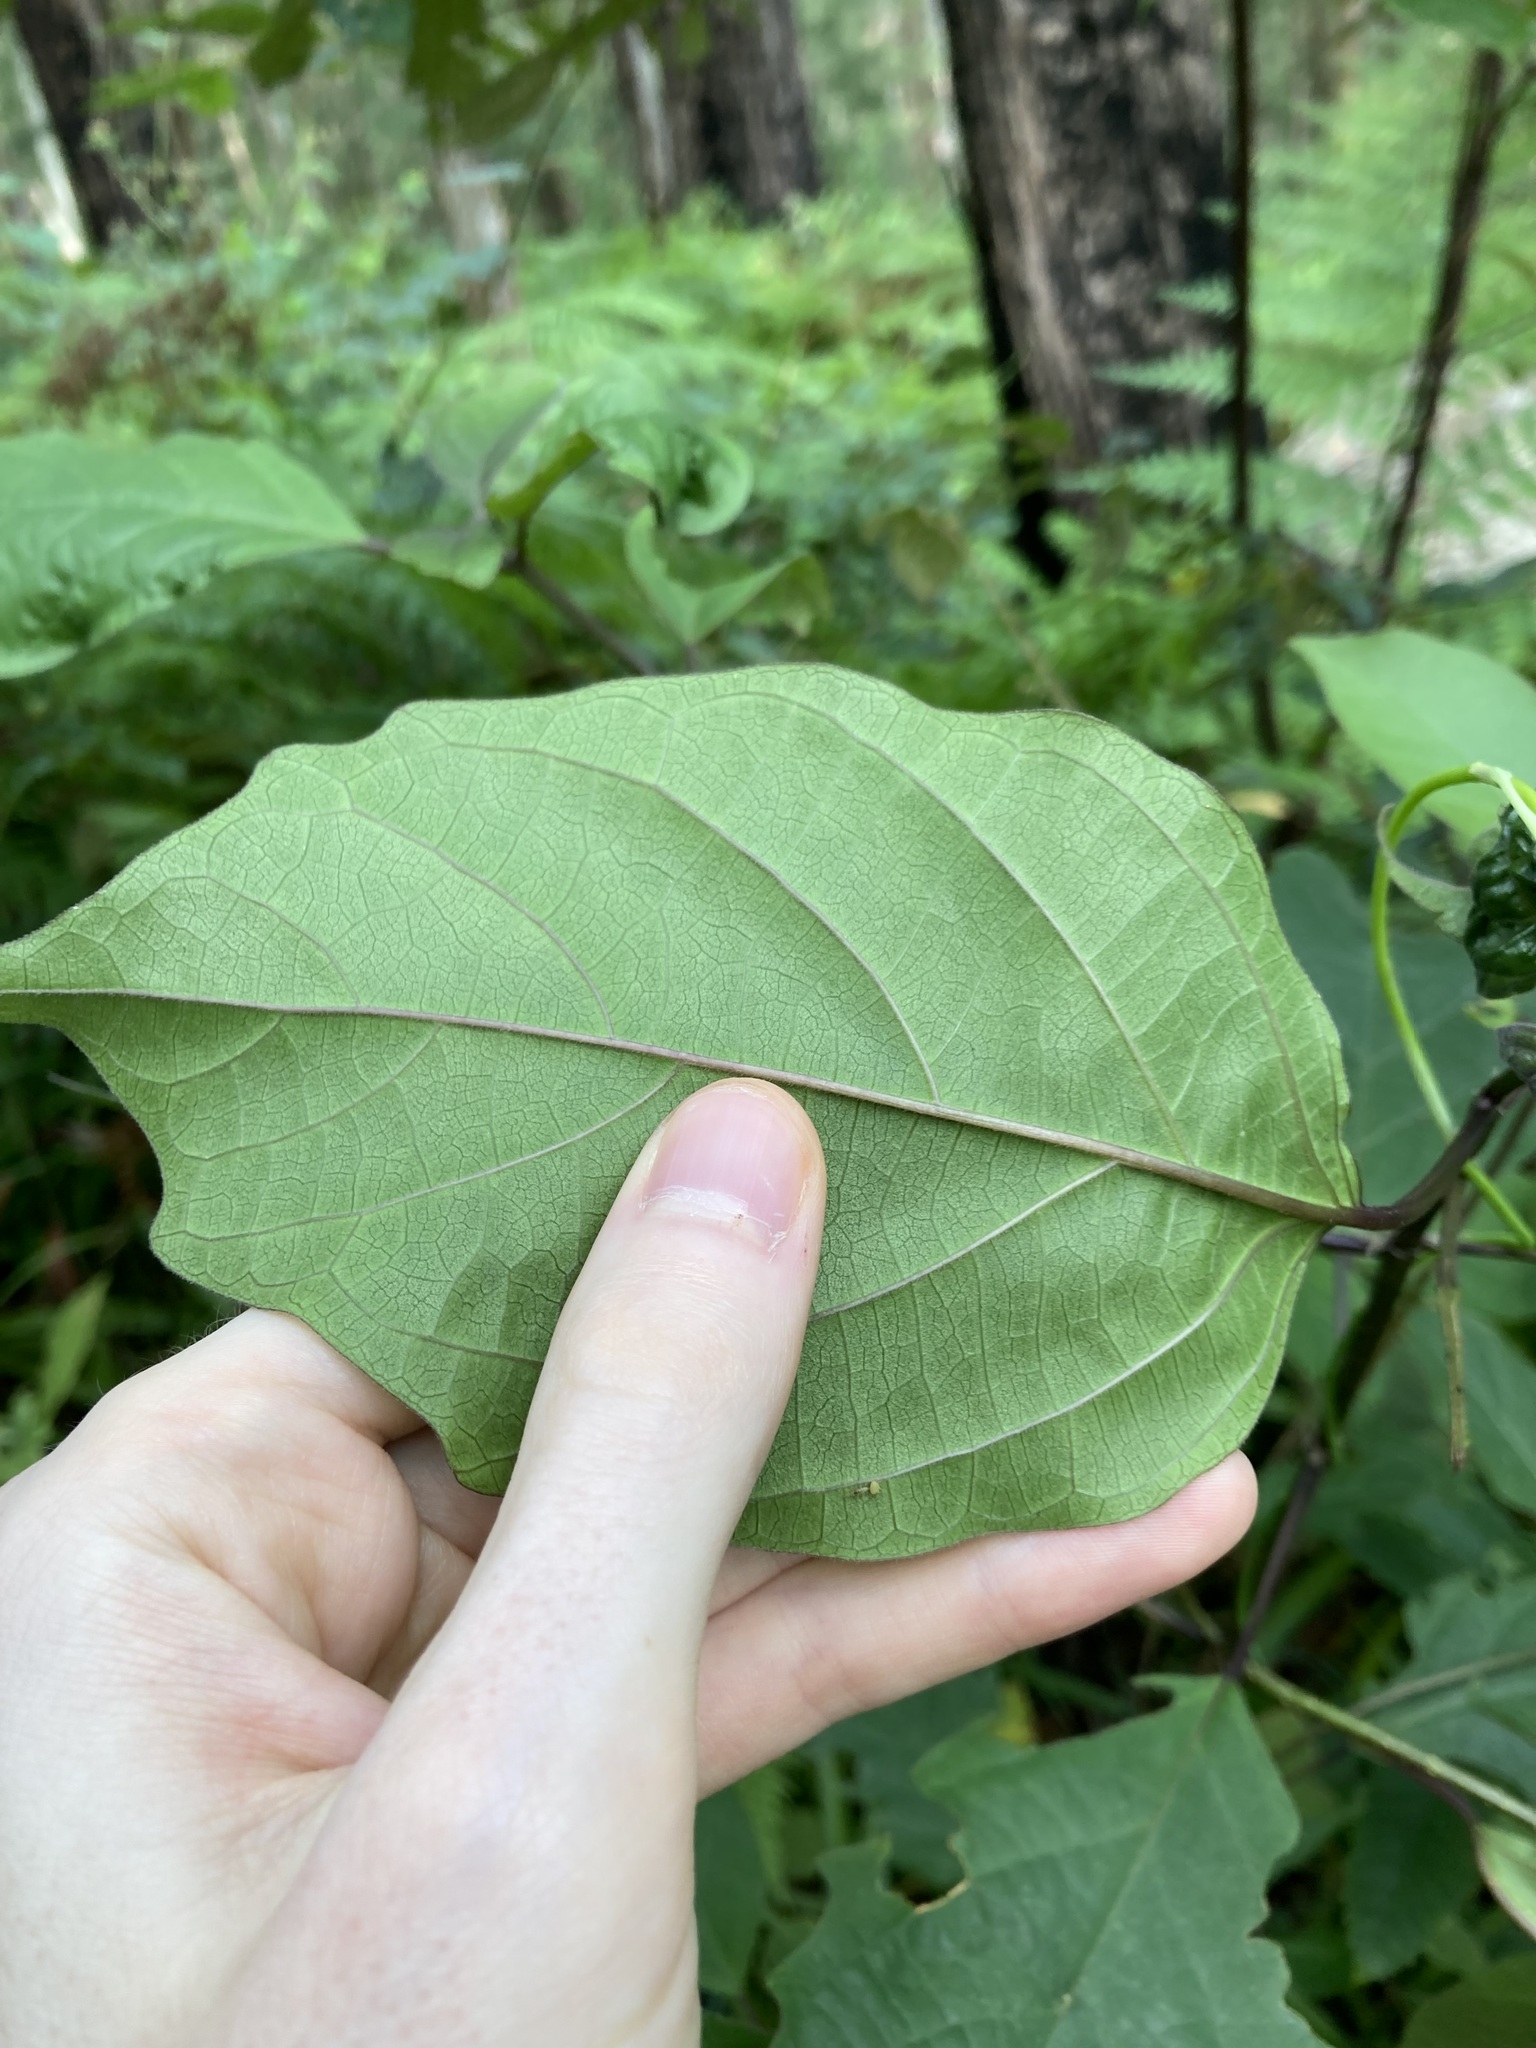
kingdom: Plantae
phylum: Tracheophyta
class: Magnoliopsida
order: Lamiales
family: Lamiaceae
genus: Clerodendrum
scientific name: Clerodendrum tomentosum
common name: Hairy clerodendrum
